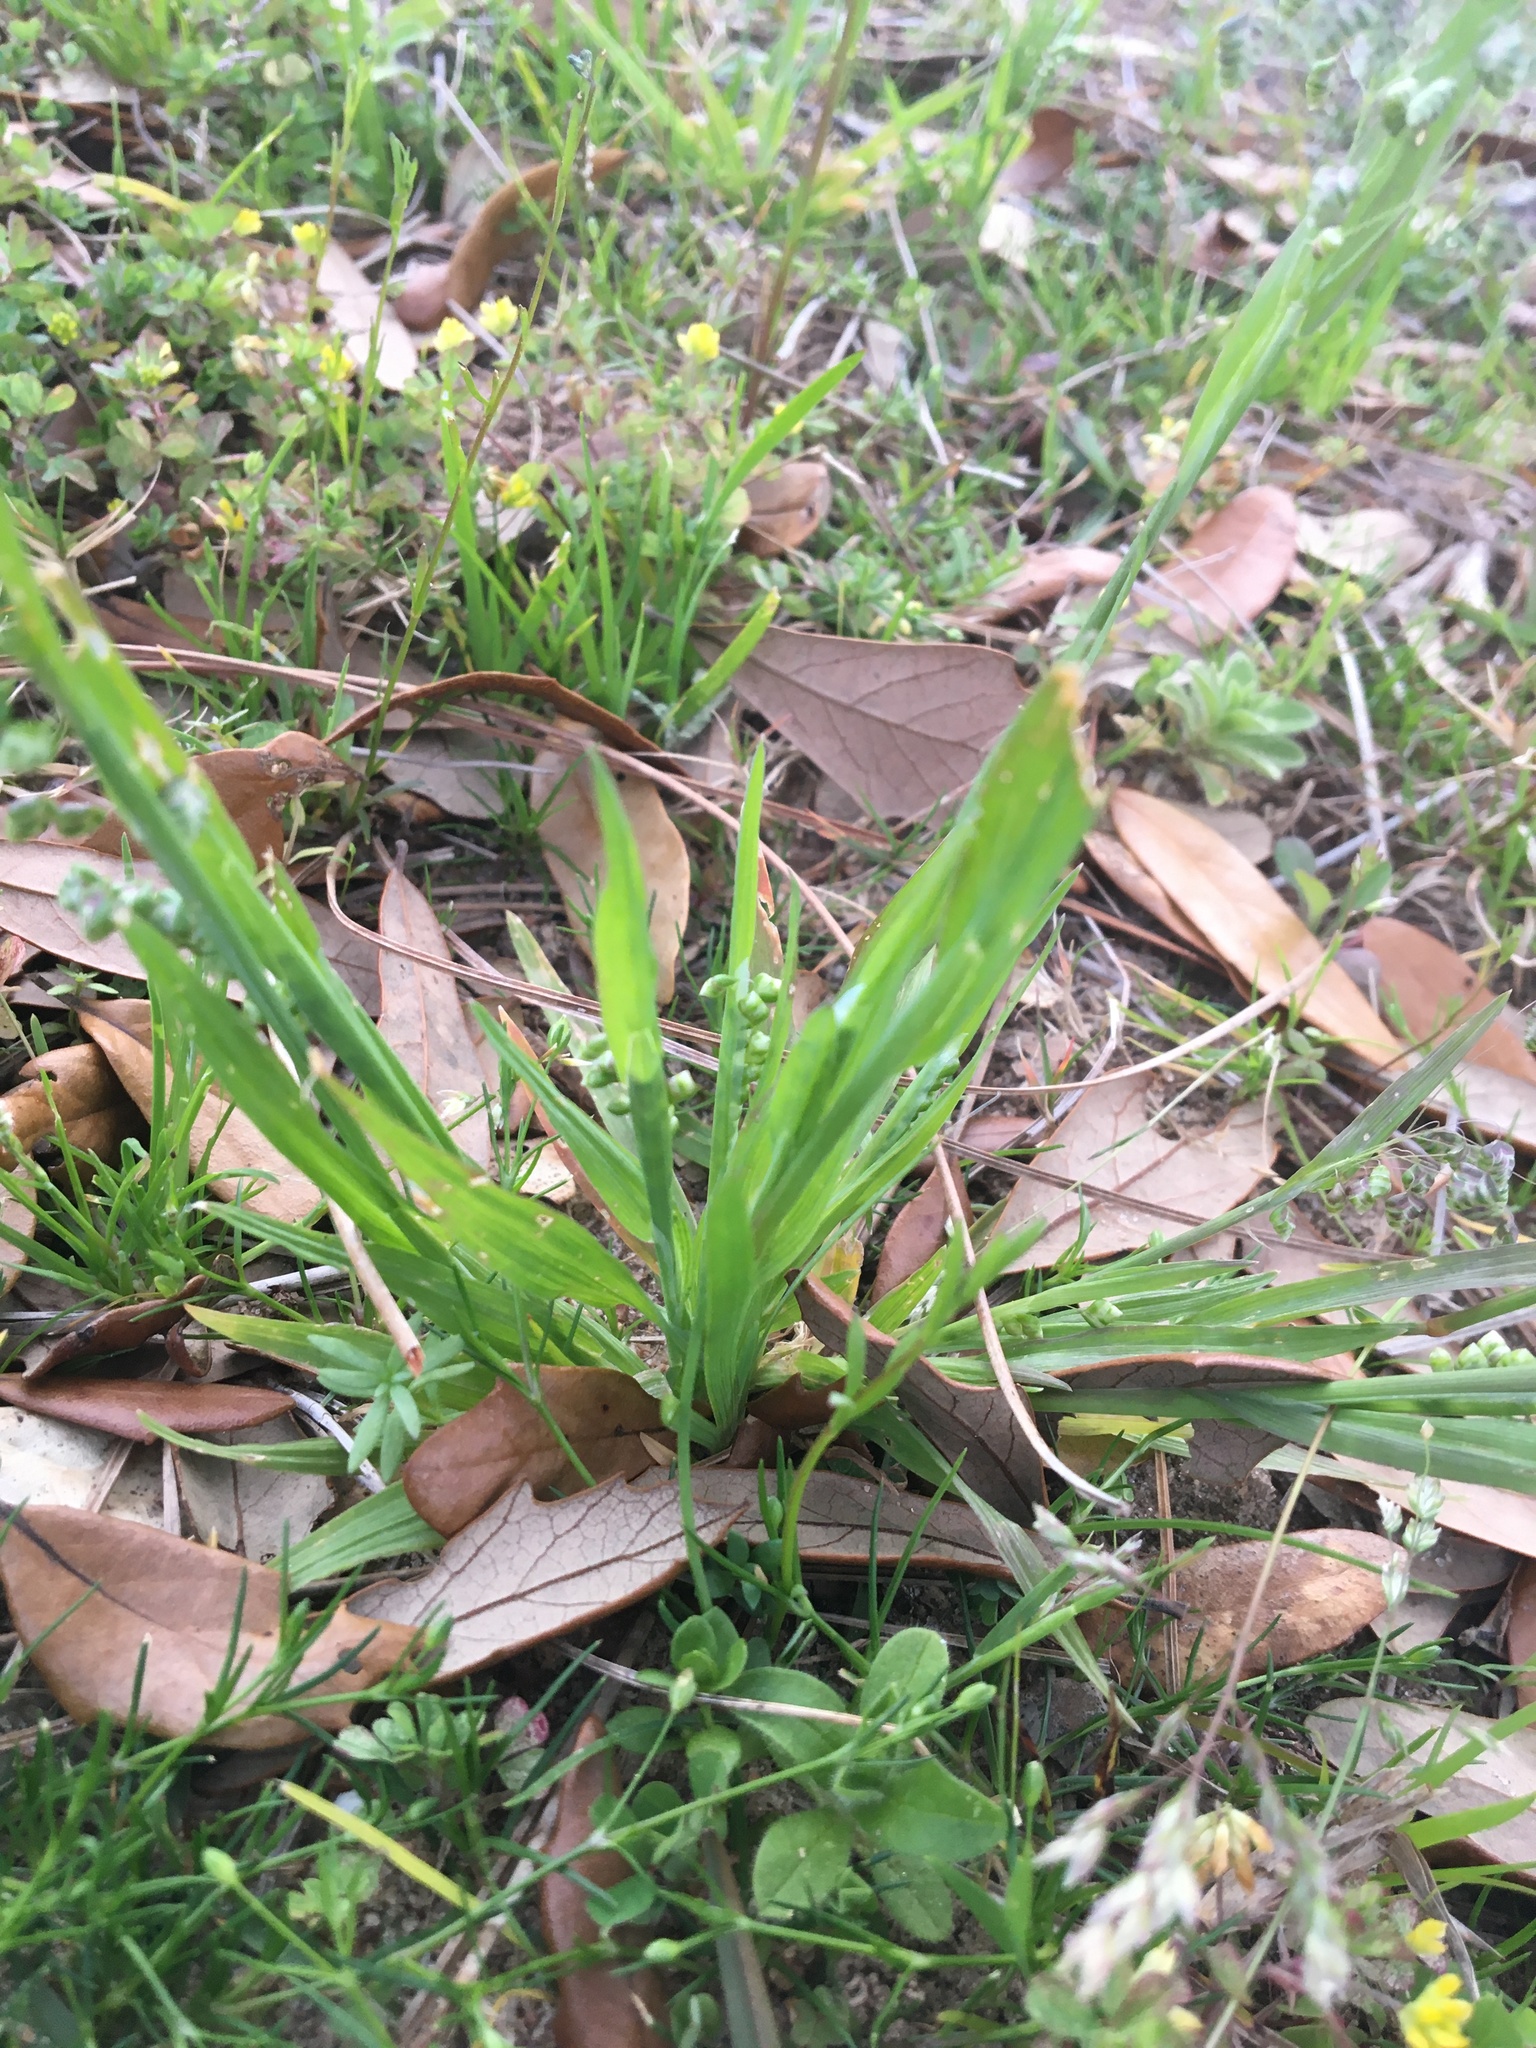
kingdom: Plantae
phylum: Tracheophyta
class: Liliopsida
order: Poales
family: Poaceae
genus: Briza
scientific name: Briza minor
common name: Lesser quaking-grass
